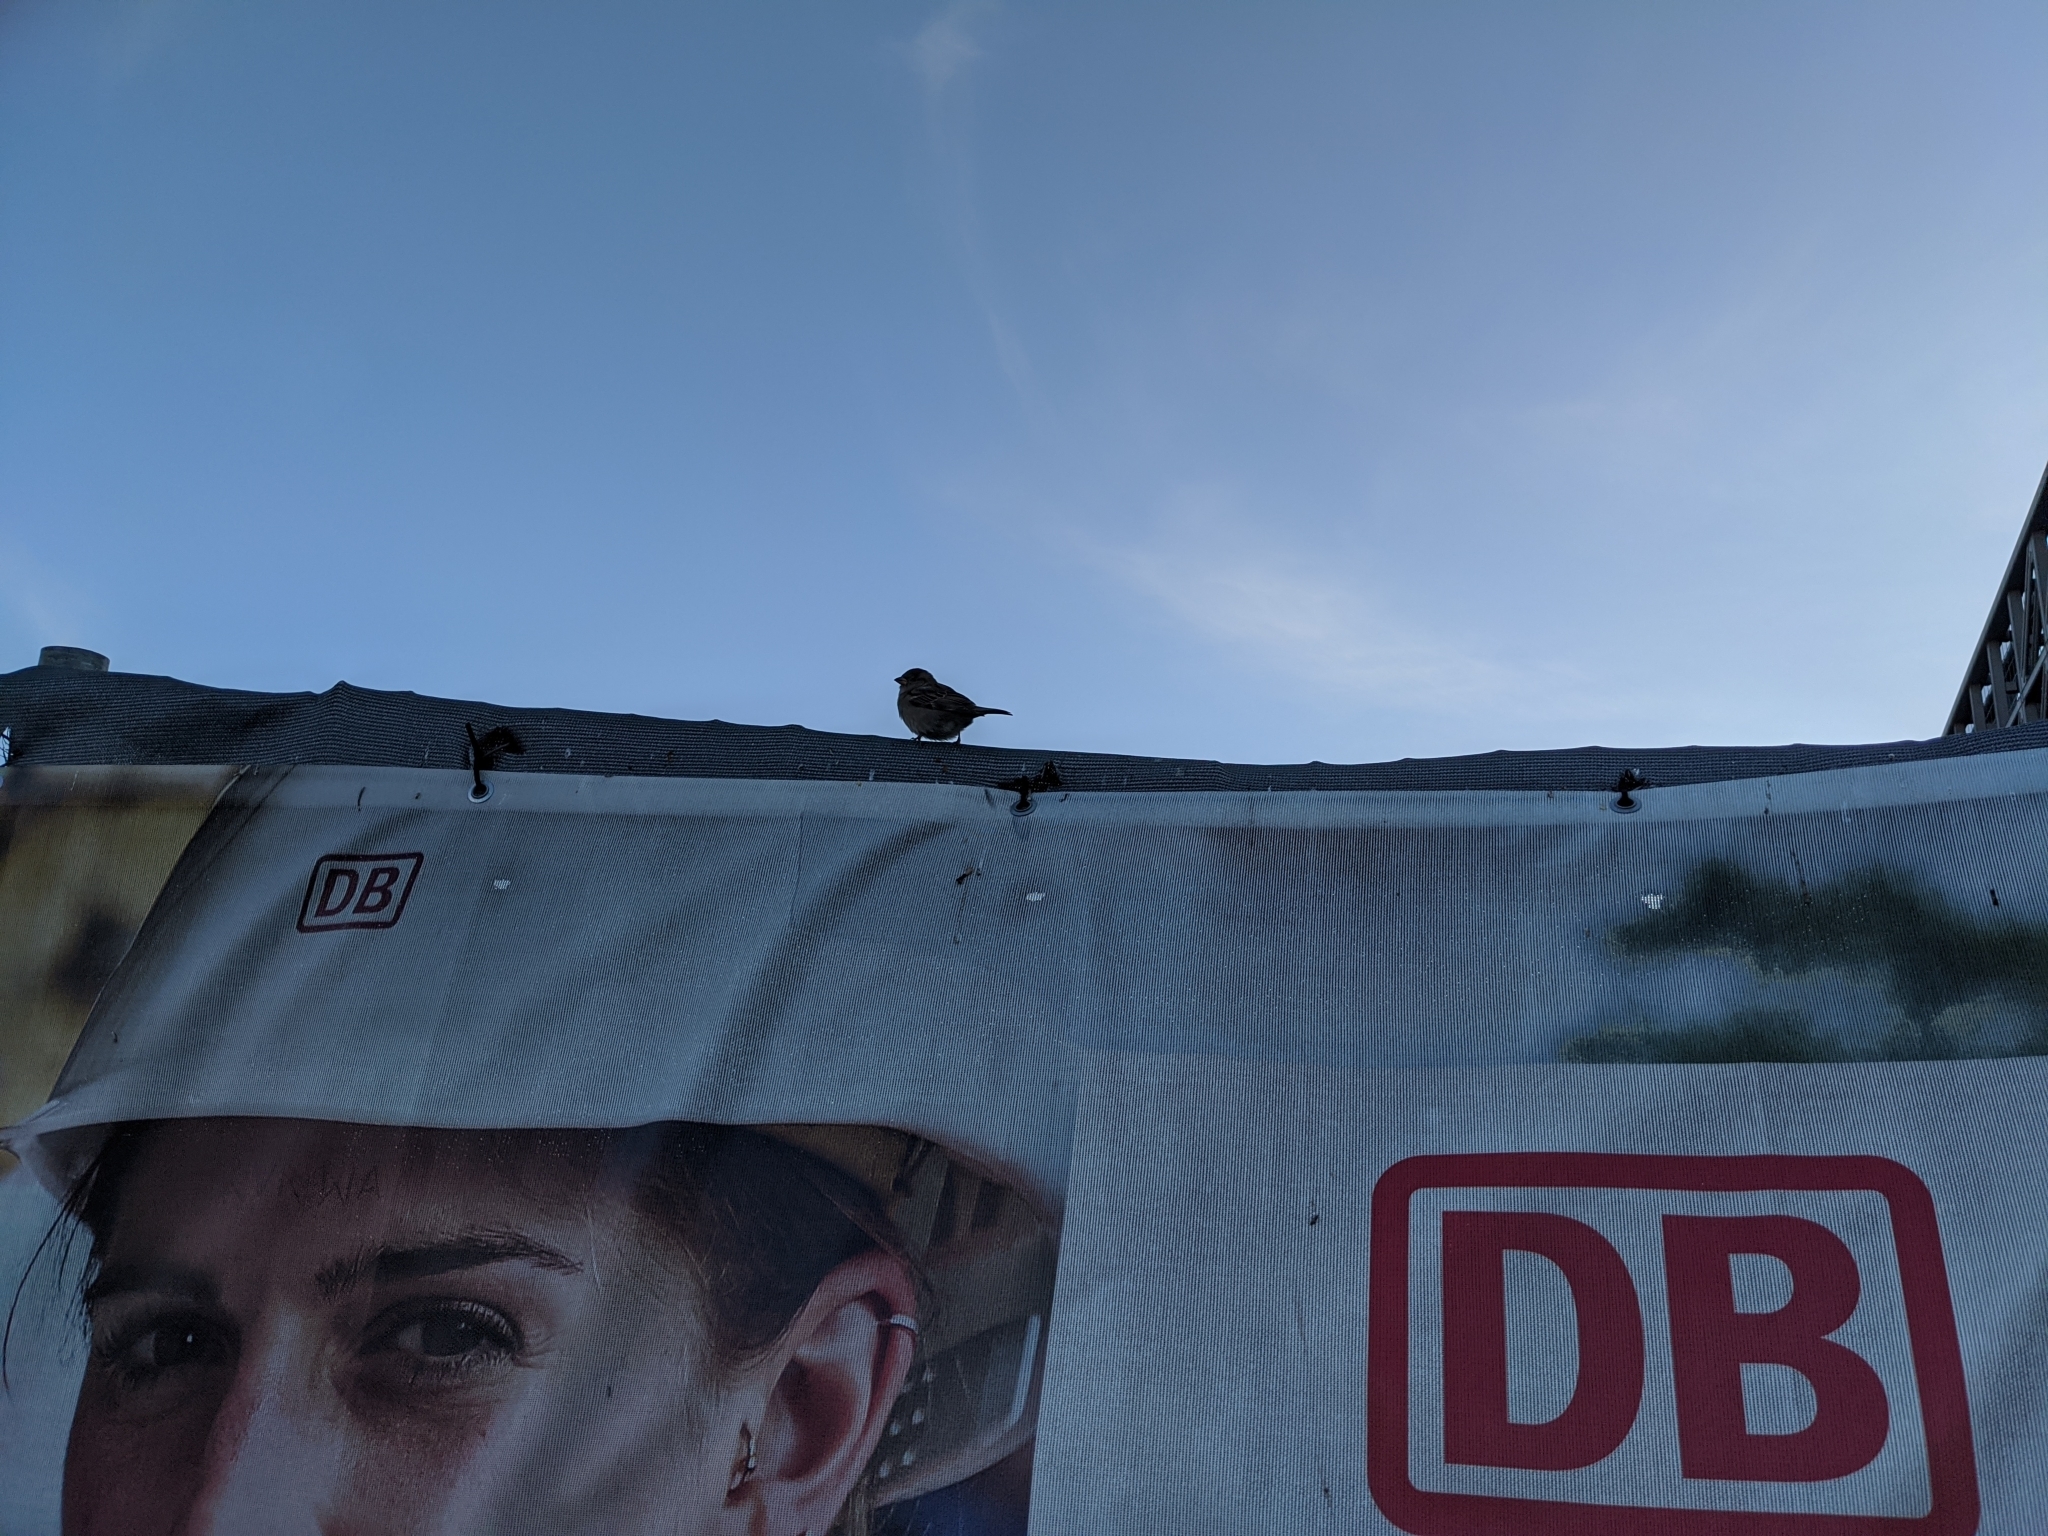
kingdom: Animalia
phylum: Chordata
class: Aves
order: Passeriformes
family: Passeridae
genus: Passer
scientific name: Passer domesticus
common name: House sparrow
